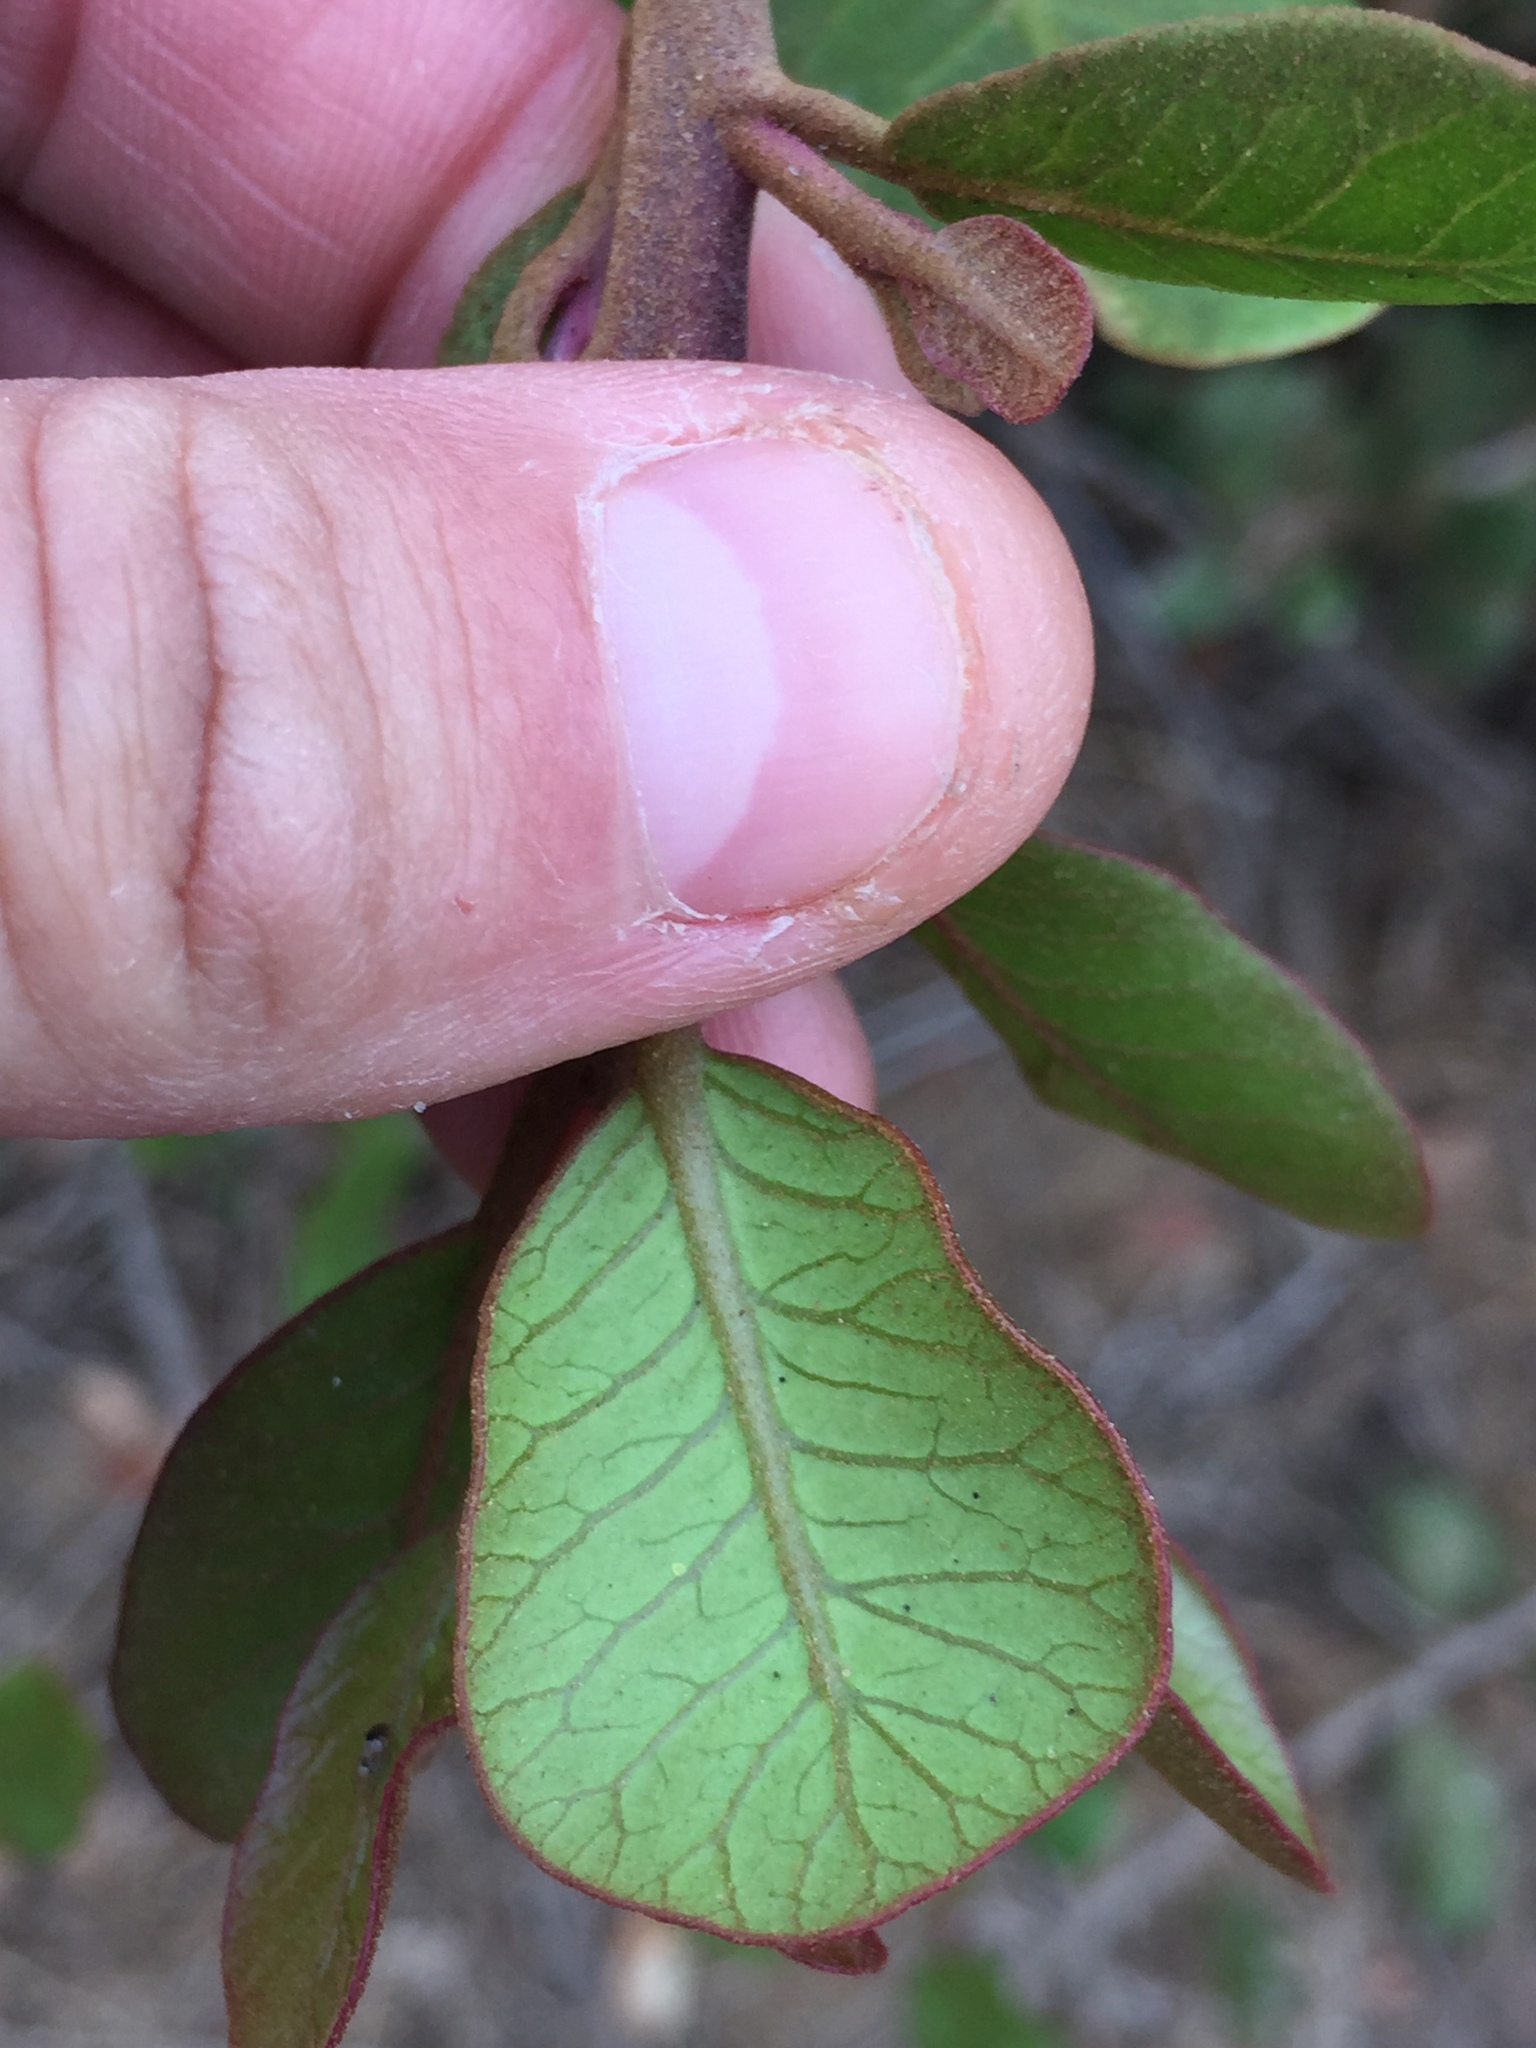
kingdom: Plantae
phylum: Tracheophyta
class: Magnoliopsida
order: Sapindales
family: Anacardiaceae
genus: Rhus
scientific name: Rhus integrifolia
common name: Lemonade sumac
